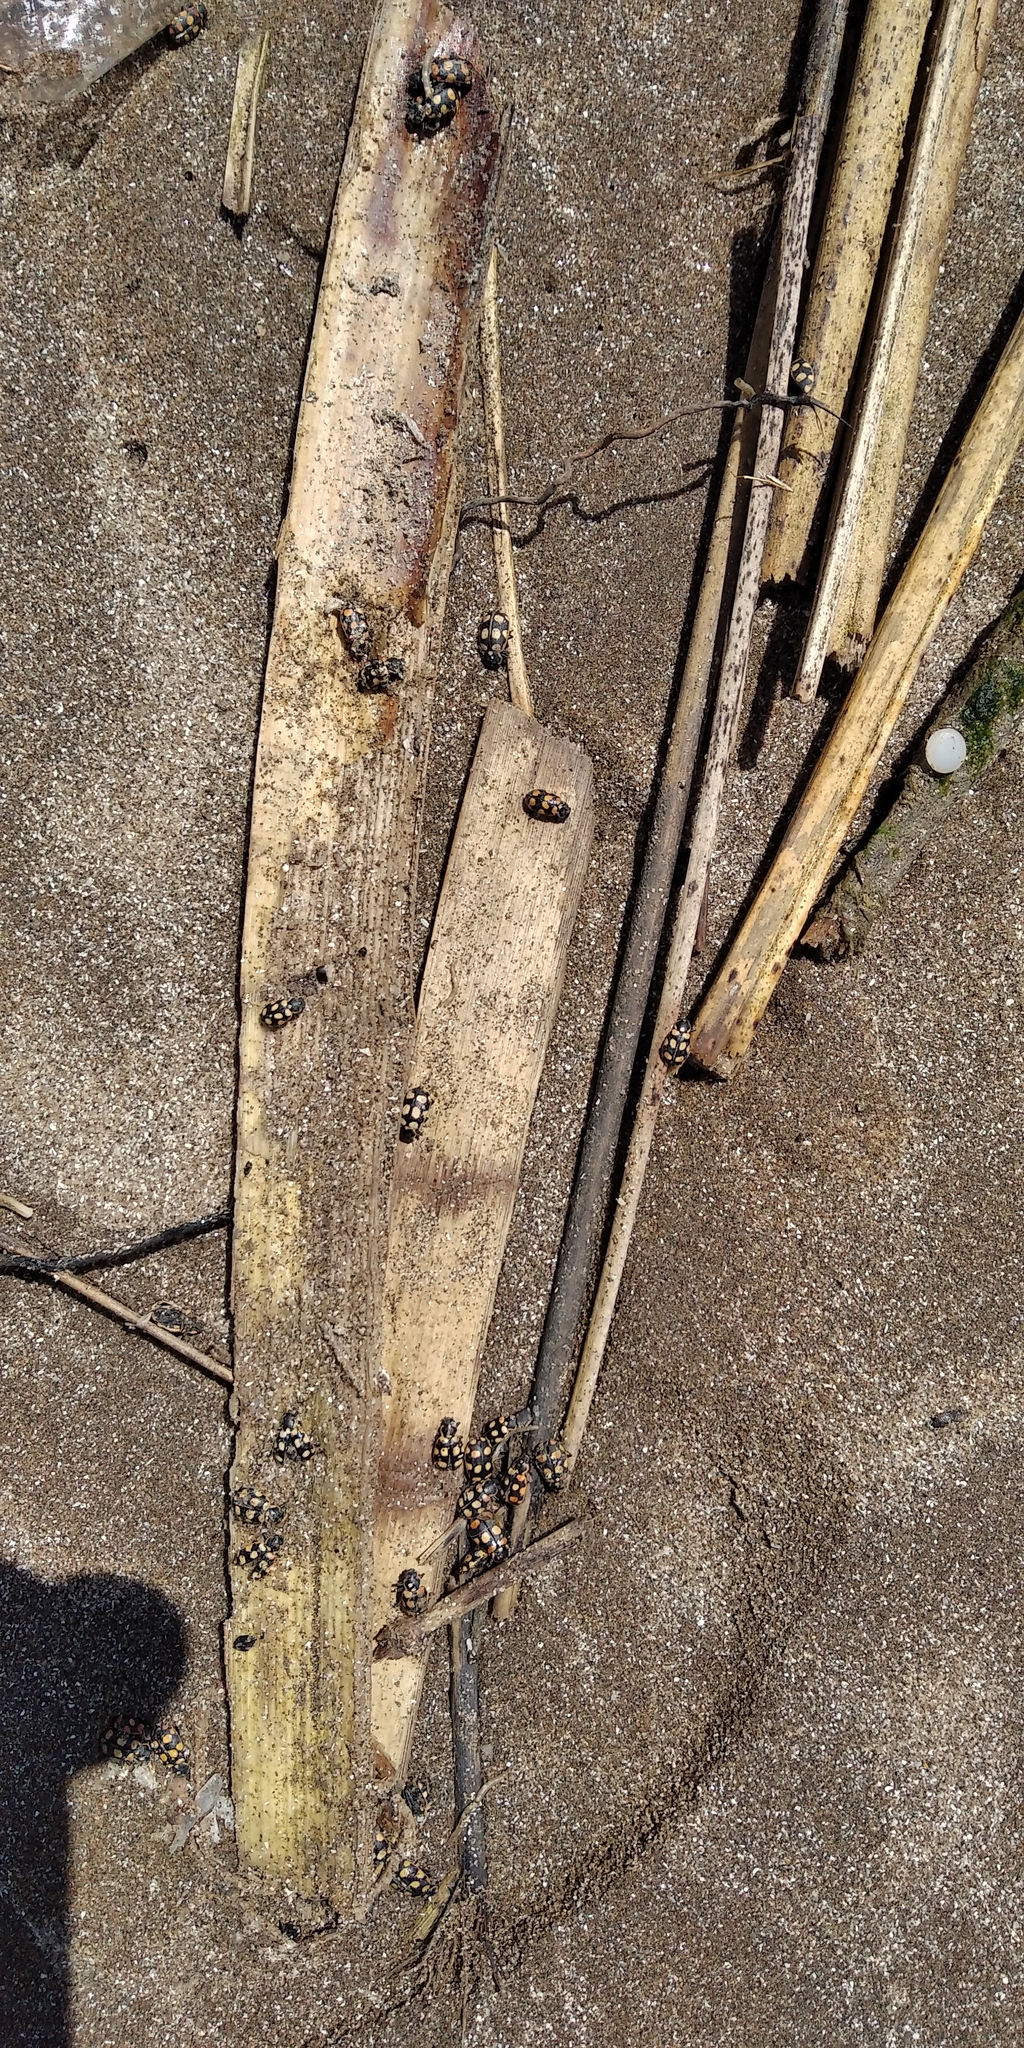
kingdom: Animalia
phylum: Arthropoda
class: Insecta
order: Coleoptera
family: Coccinellidae
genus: Eriopis
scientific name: Eriopis connexa
